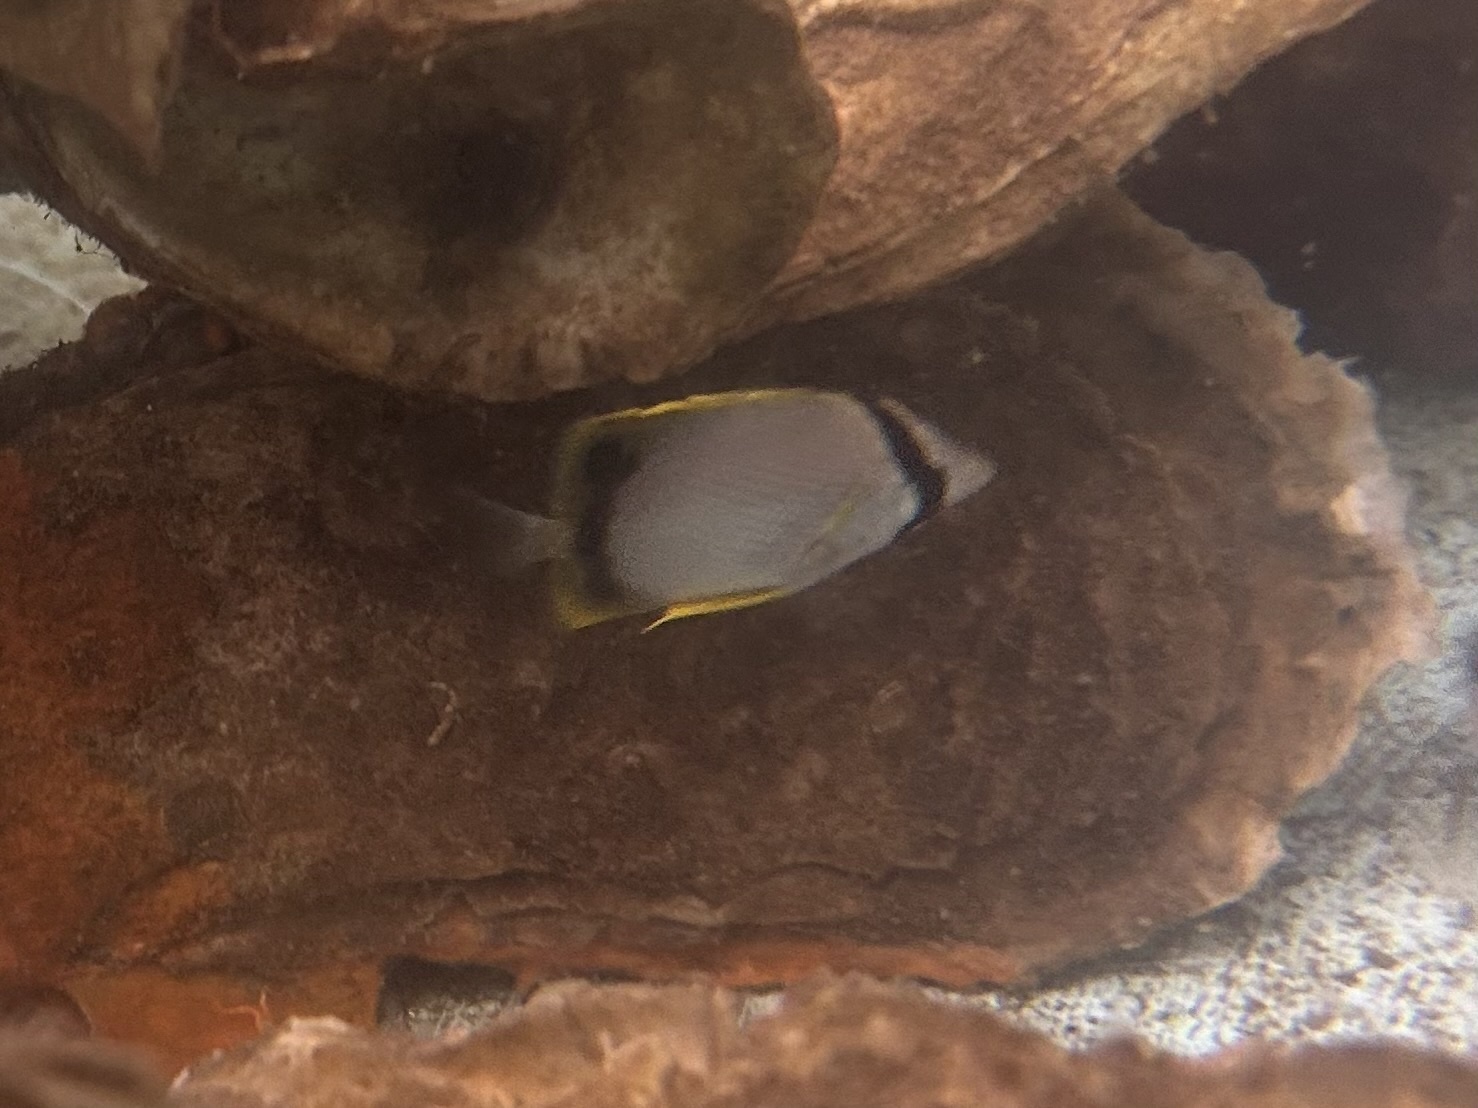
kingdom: Animalia
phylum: Chordata
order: Perciformes
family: Chaetodontidae
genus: Chaetodon
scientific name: Chaetodon ocellatus
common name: Spotfin butterflyfish
